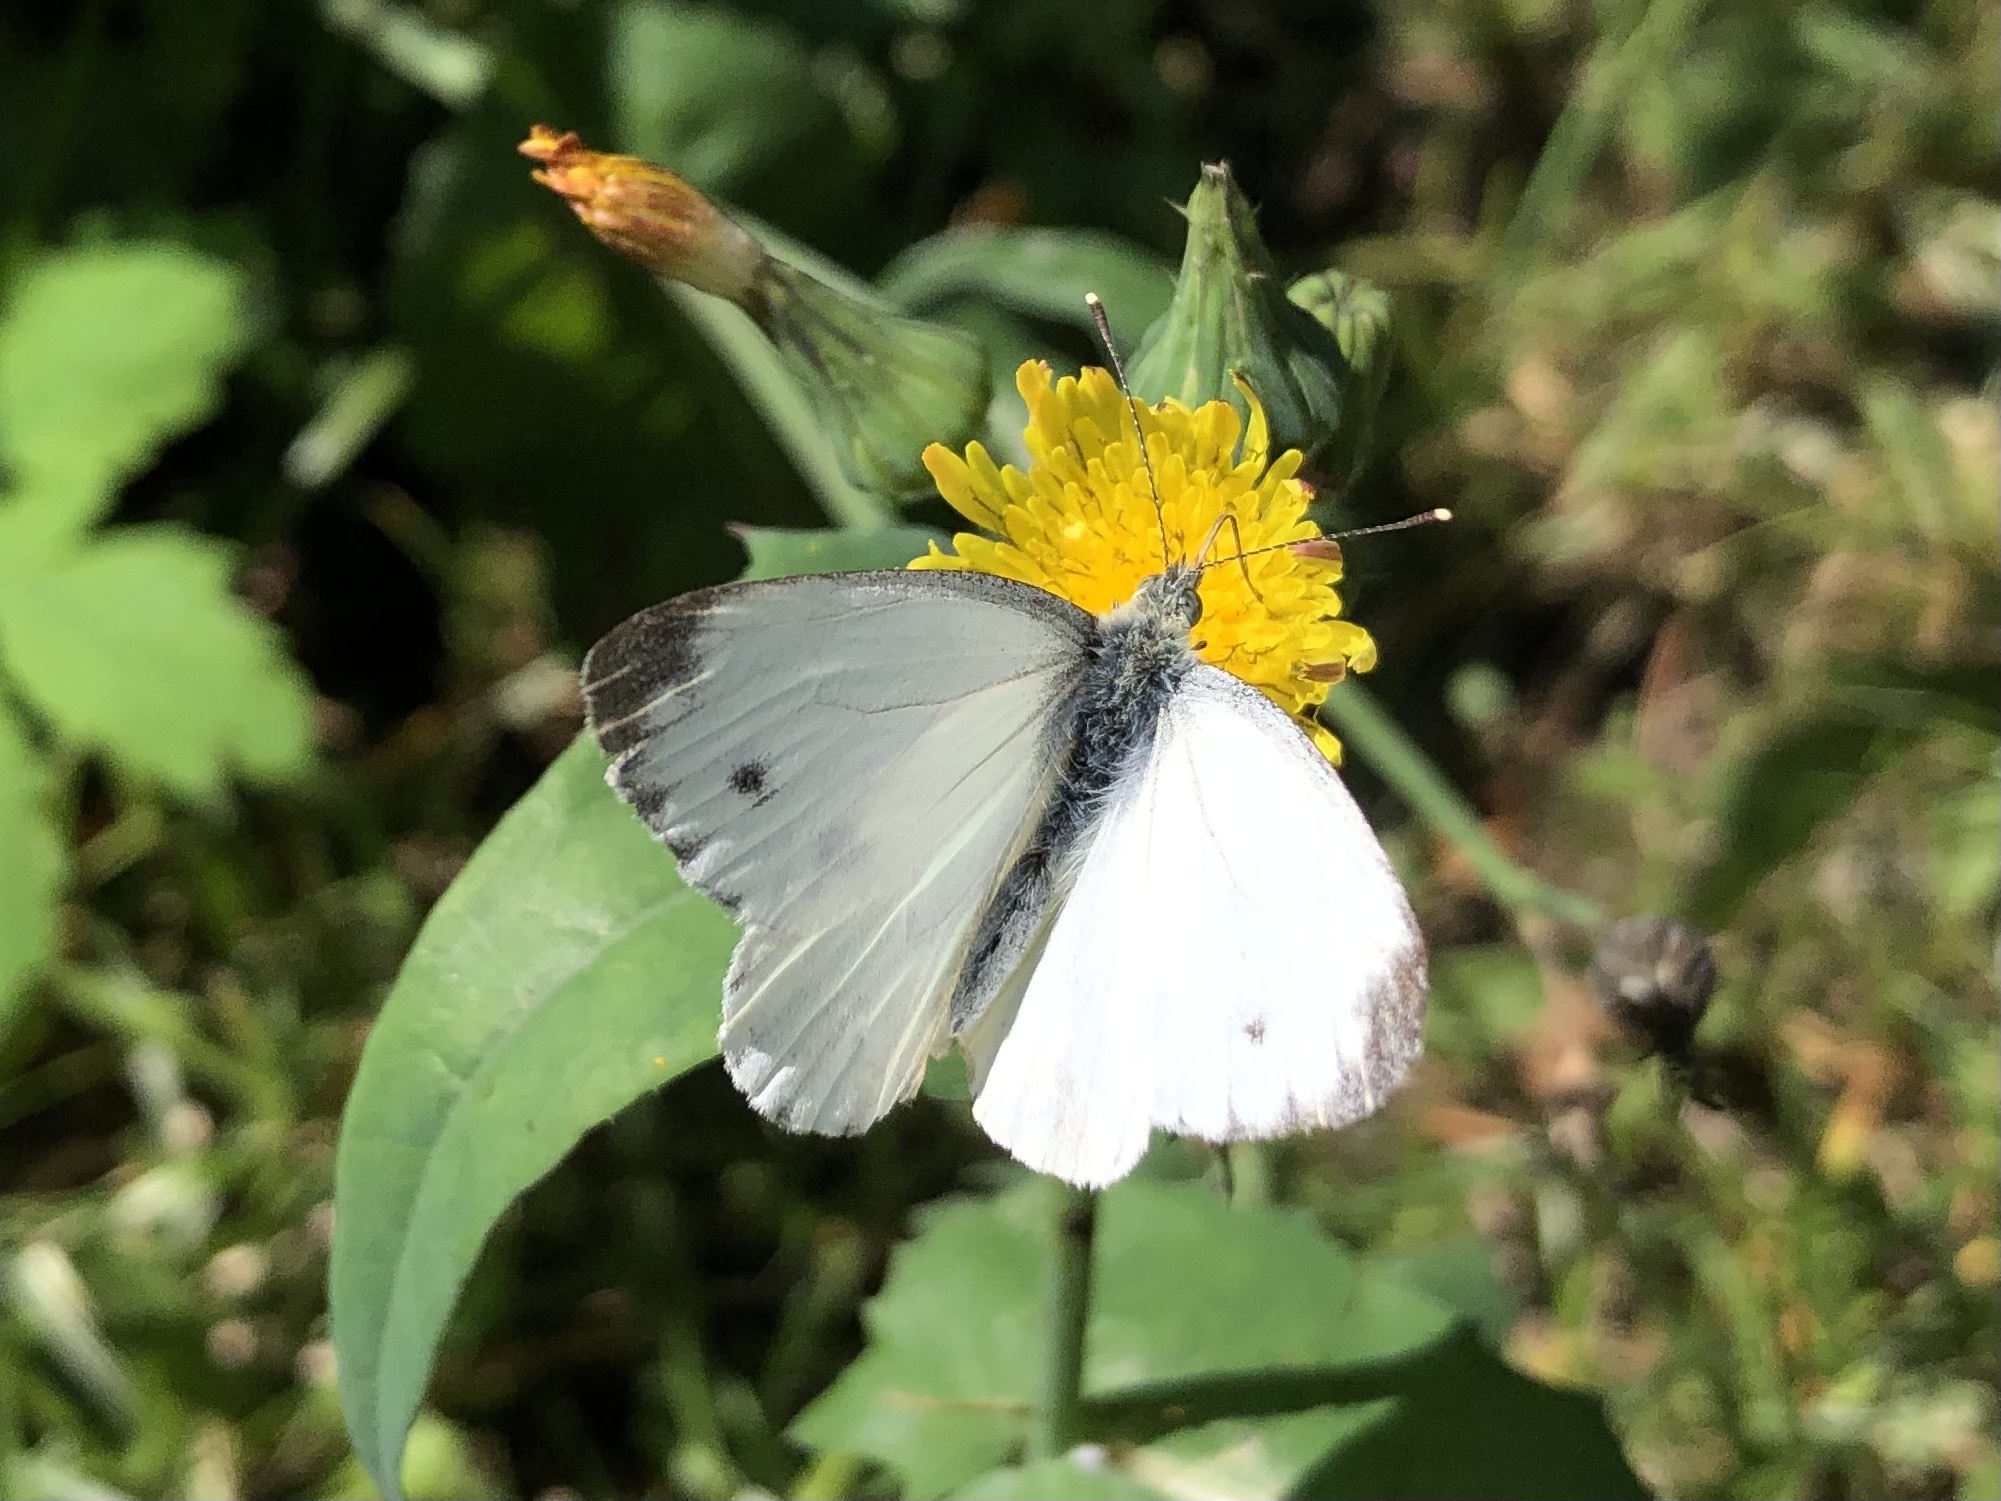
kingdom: Animalia
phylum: Arthropoda
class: Insecta
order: Lepidoptera
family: Pieridae
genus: Pieris
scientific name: Pieris napi
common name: Green-veined white
